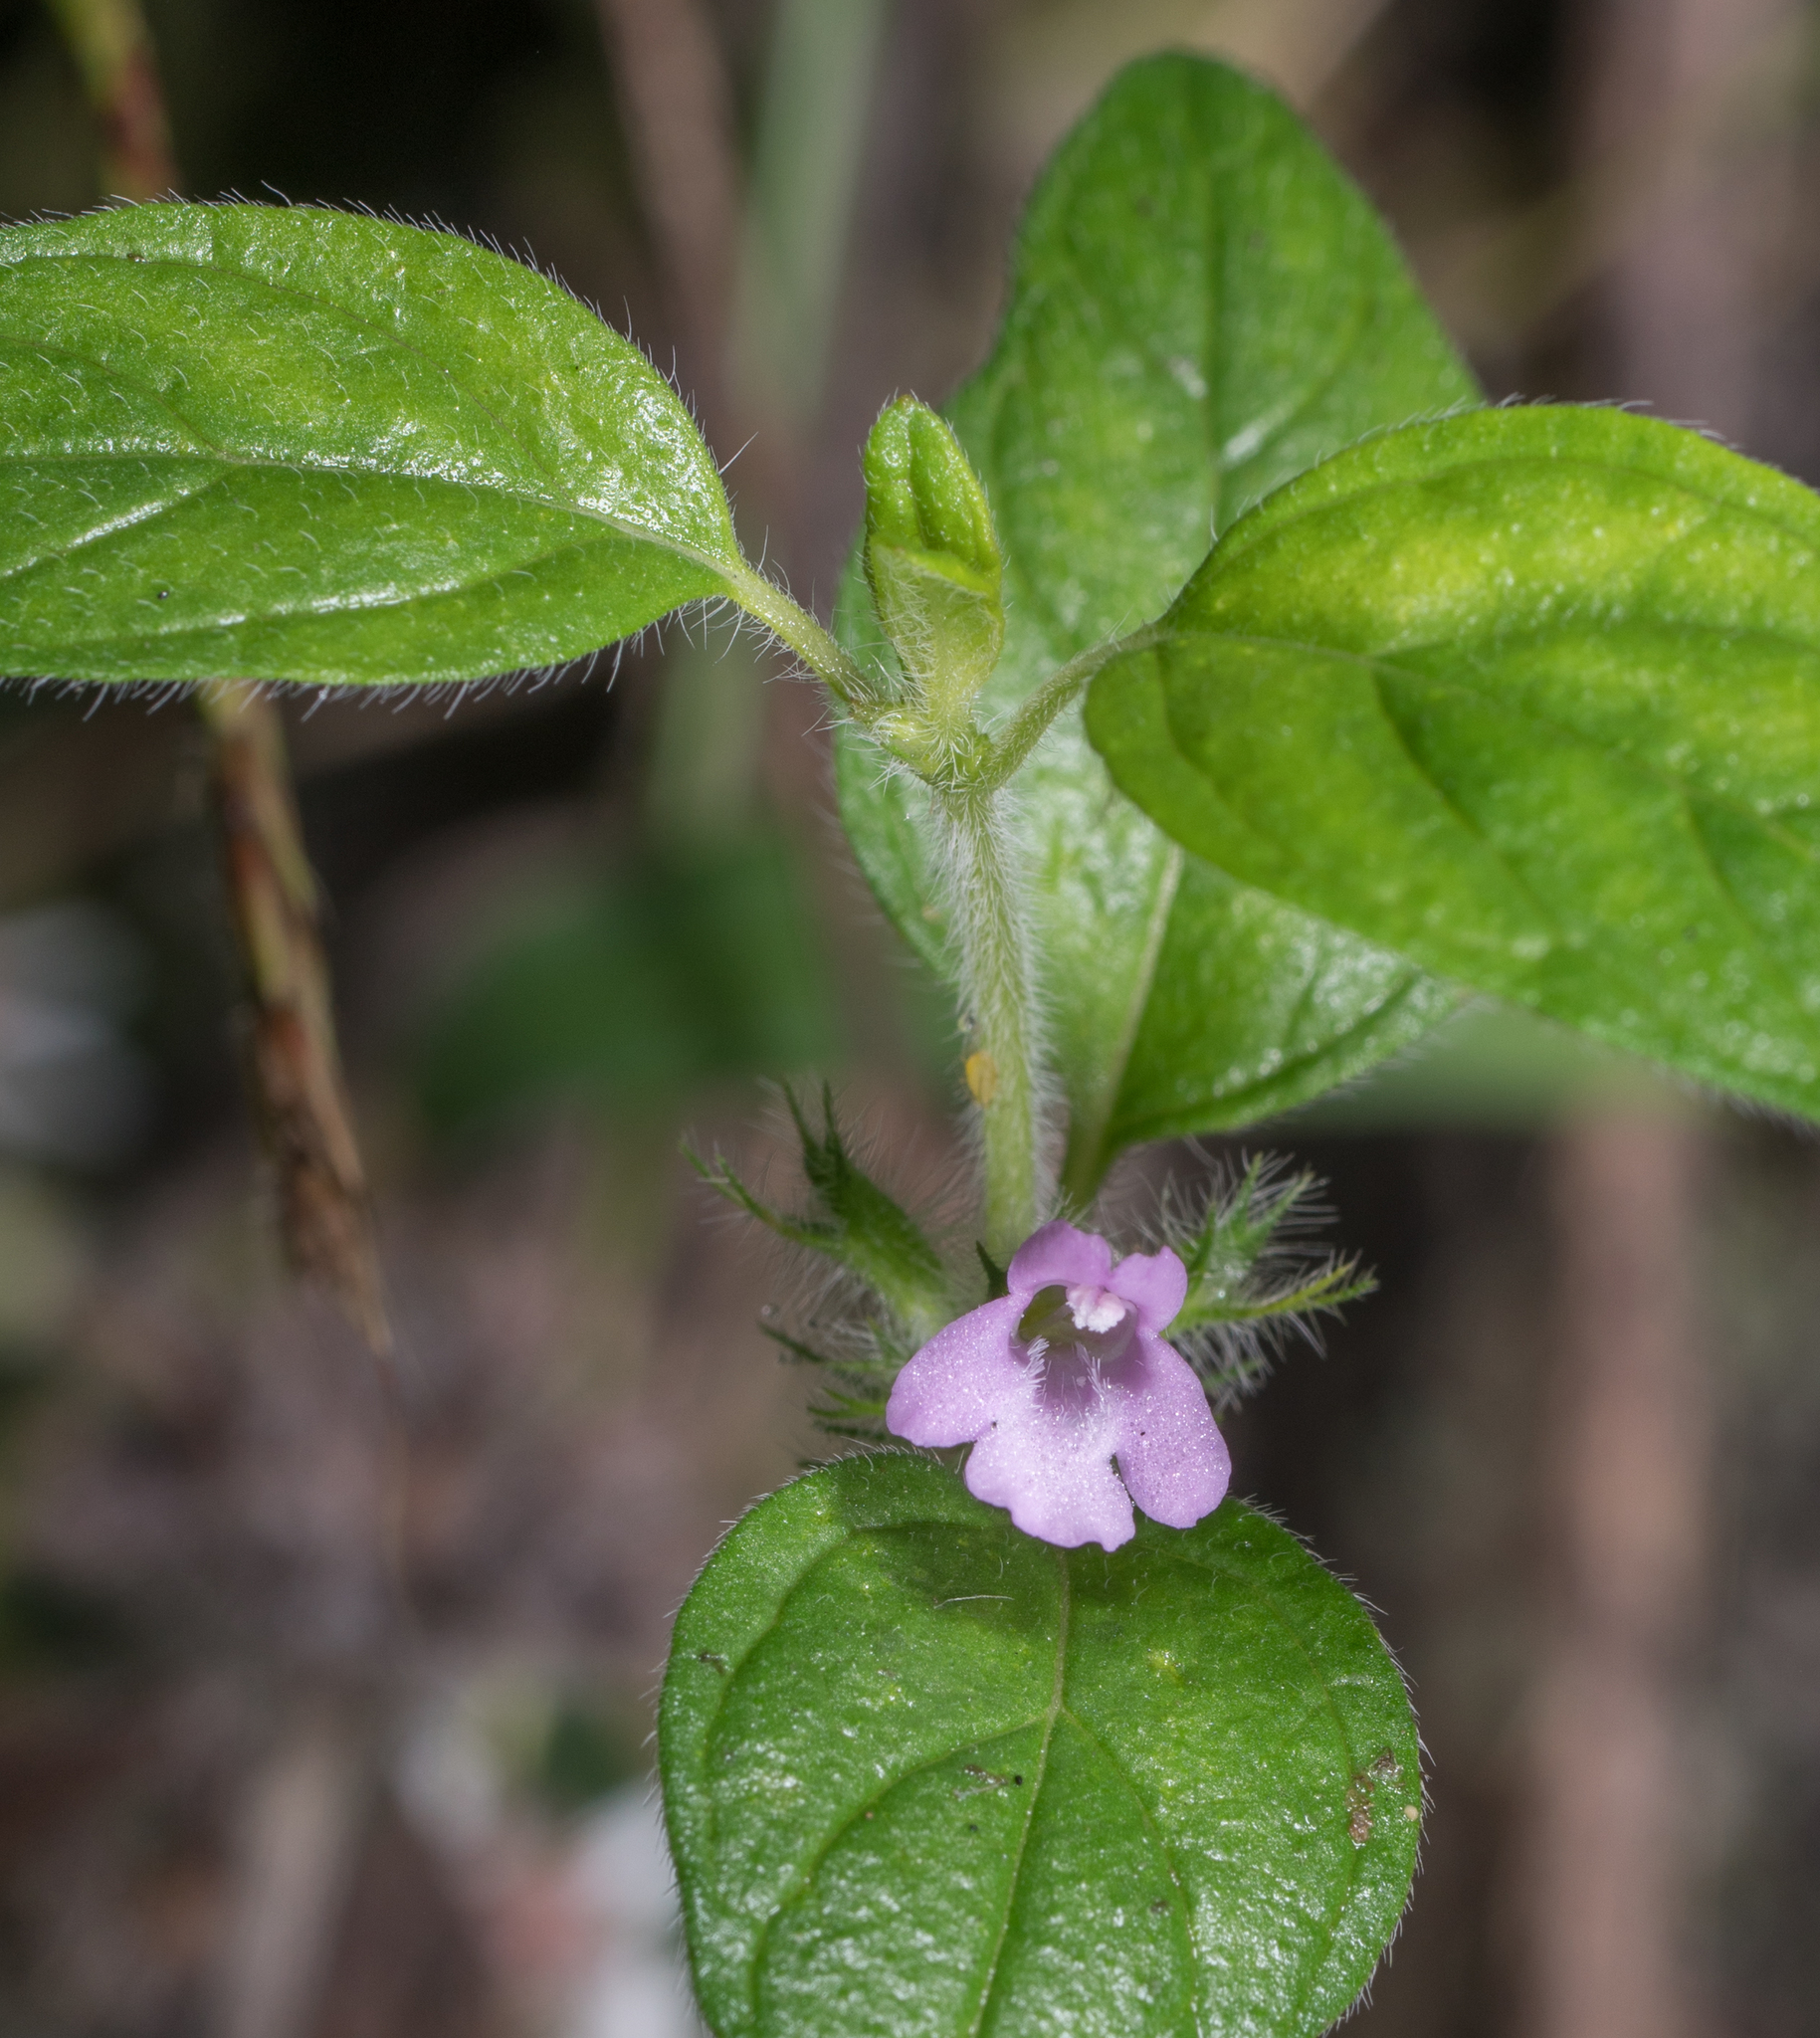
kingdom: Plantae
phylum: Tracheophyta
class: Magnoliopsida
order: Lamiales
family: Lamiaceae
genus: Clinopodium
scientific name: Clinopodium vulgare
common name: Wild basil
